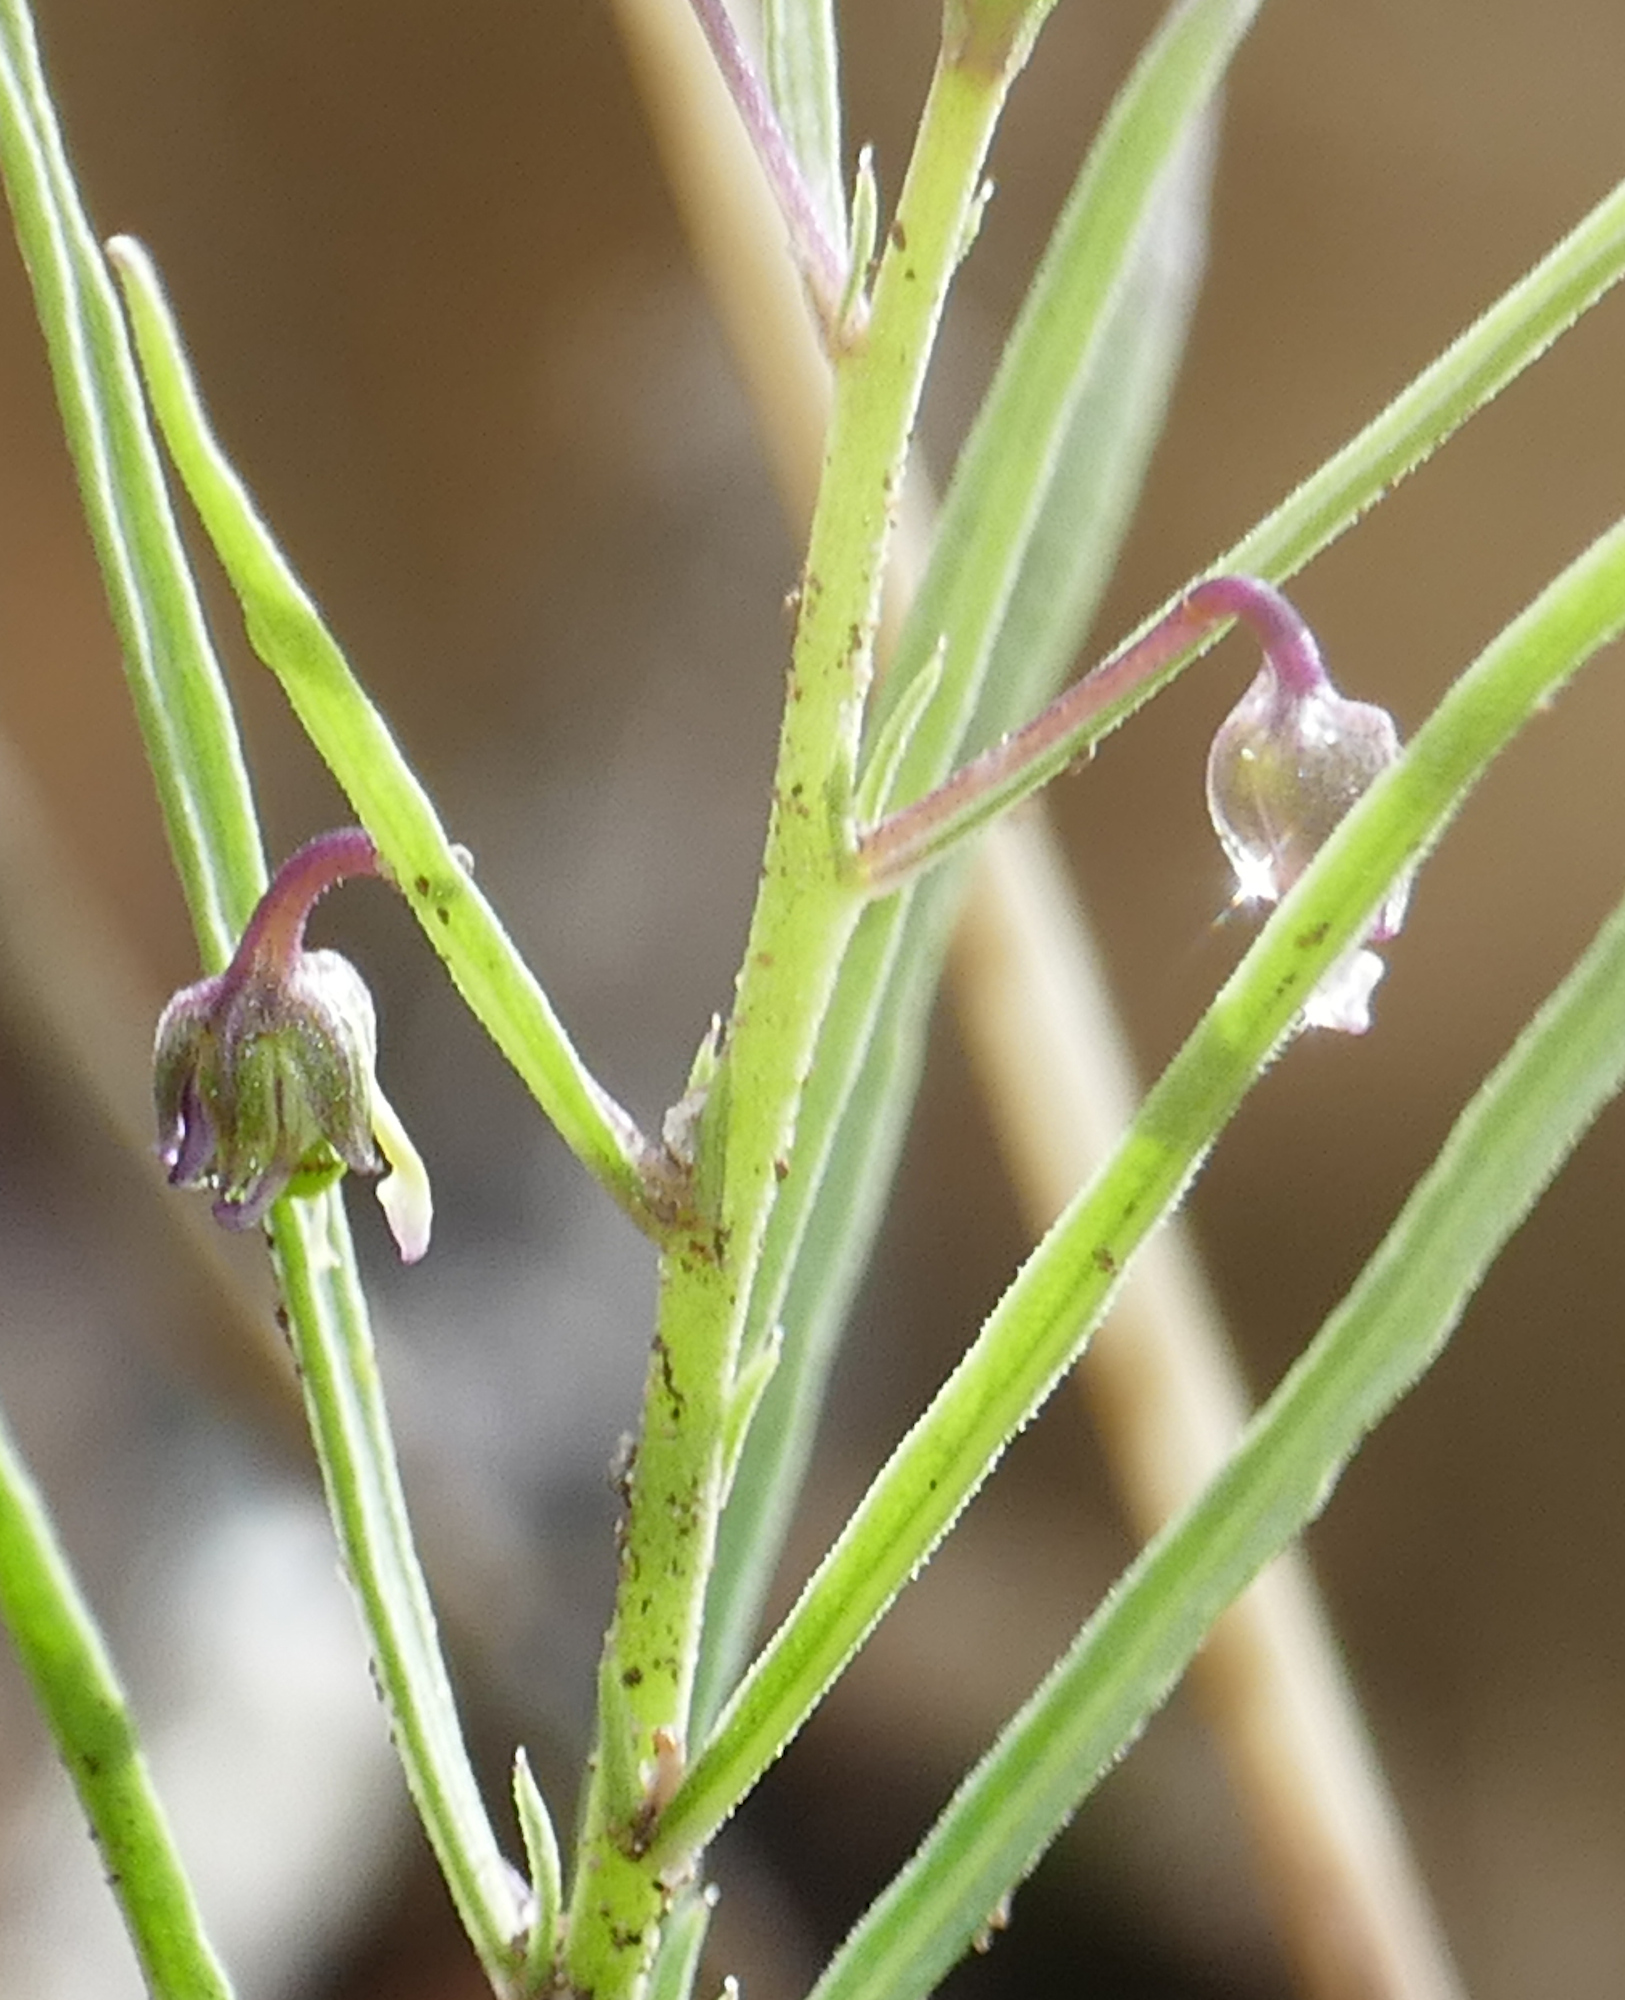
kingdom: Plantae
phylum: Tracheophyta
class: Magnoliopsida
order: Malpighiales
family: Violaceae
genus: Pombalia
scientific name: Pombalia verticillata
